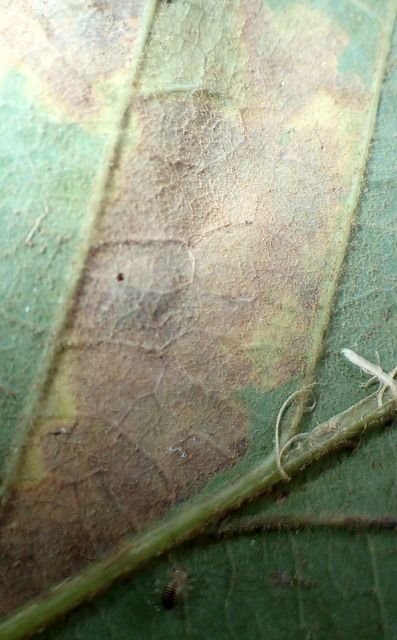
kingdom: Animalia
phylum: Arthropoda
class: Insecta
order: Lepidoptera
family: Tischeriidae
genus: Tischeria
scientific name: Tischeria quercitella
